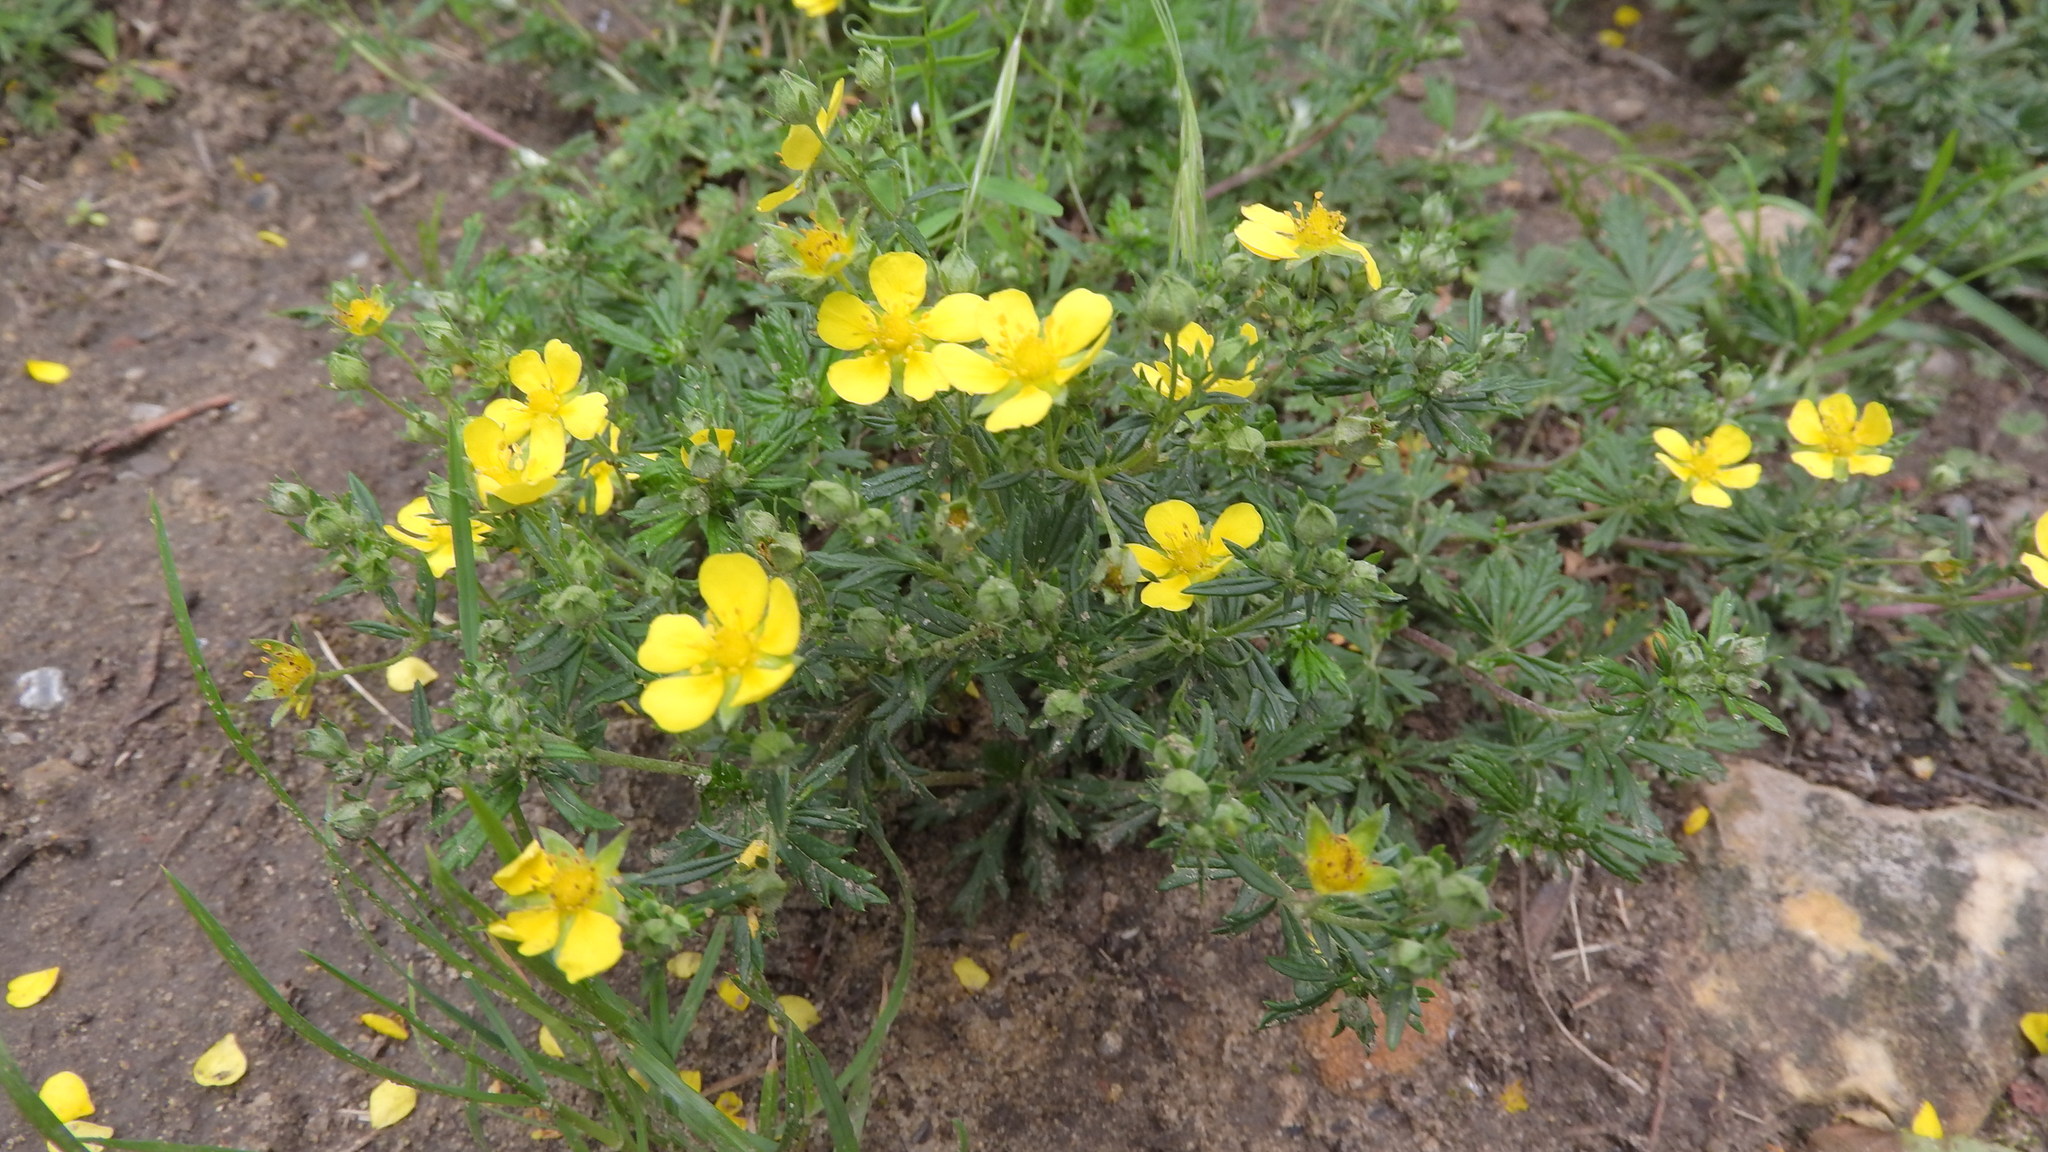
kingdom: Plantae
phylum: Tracheophyta
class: Magnoliopsida
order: Rosales
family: Rosaceae
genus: Potentilla
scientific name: Potentilla argentea
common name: Hoary cinquefoil
